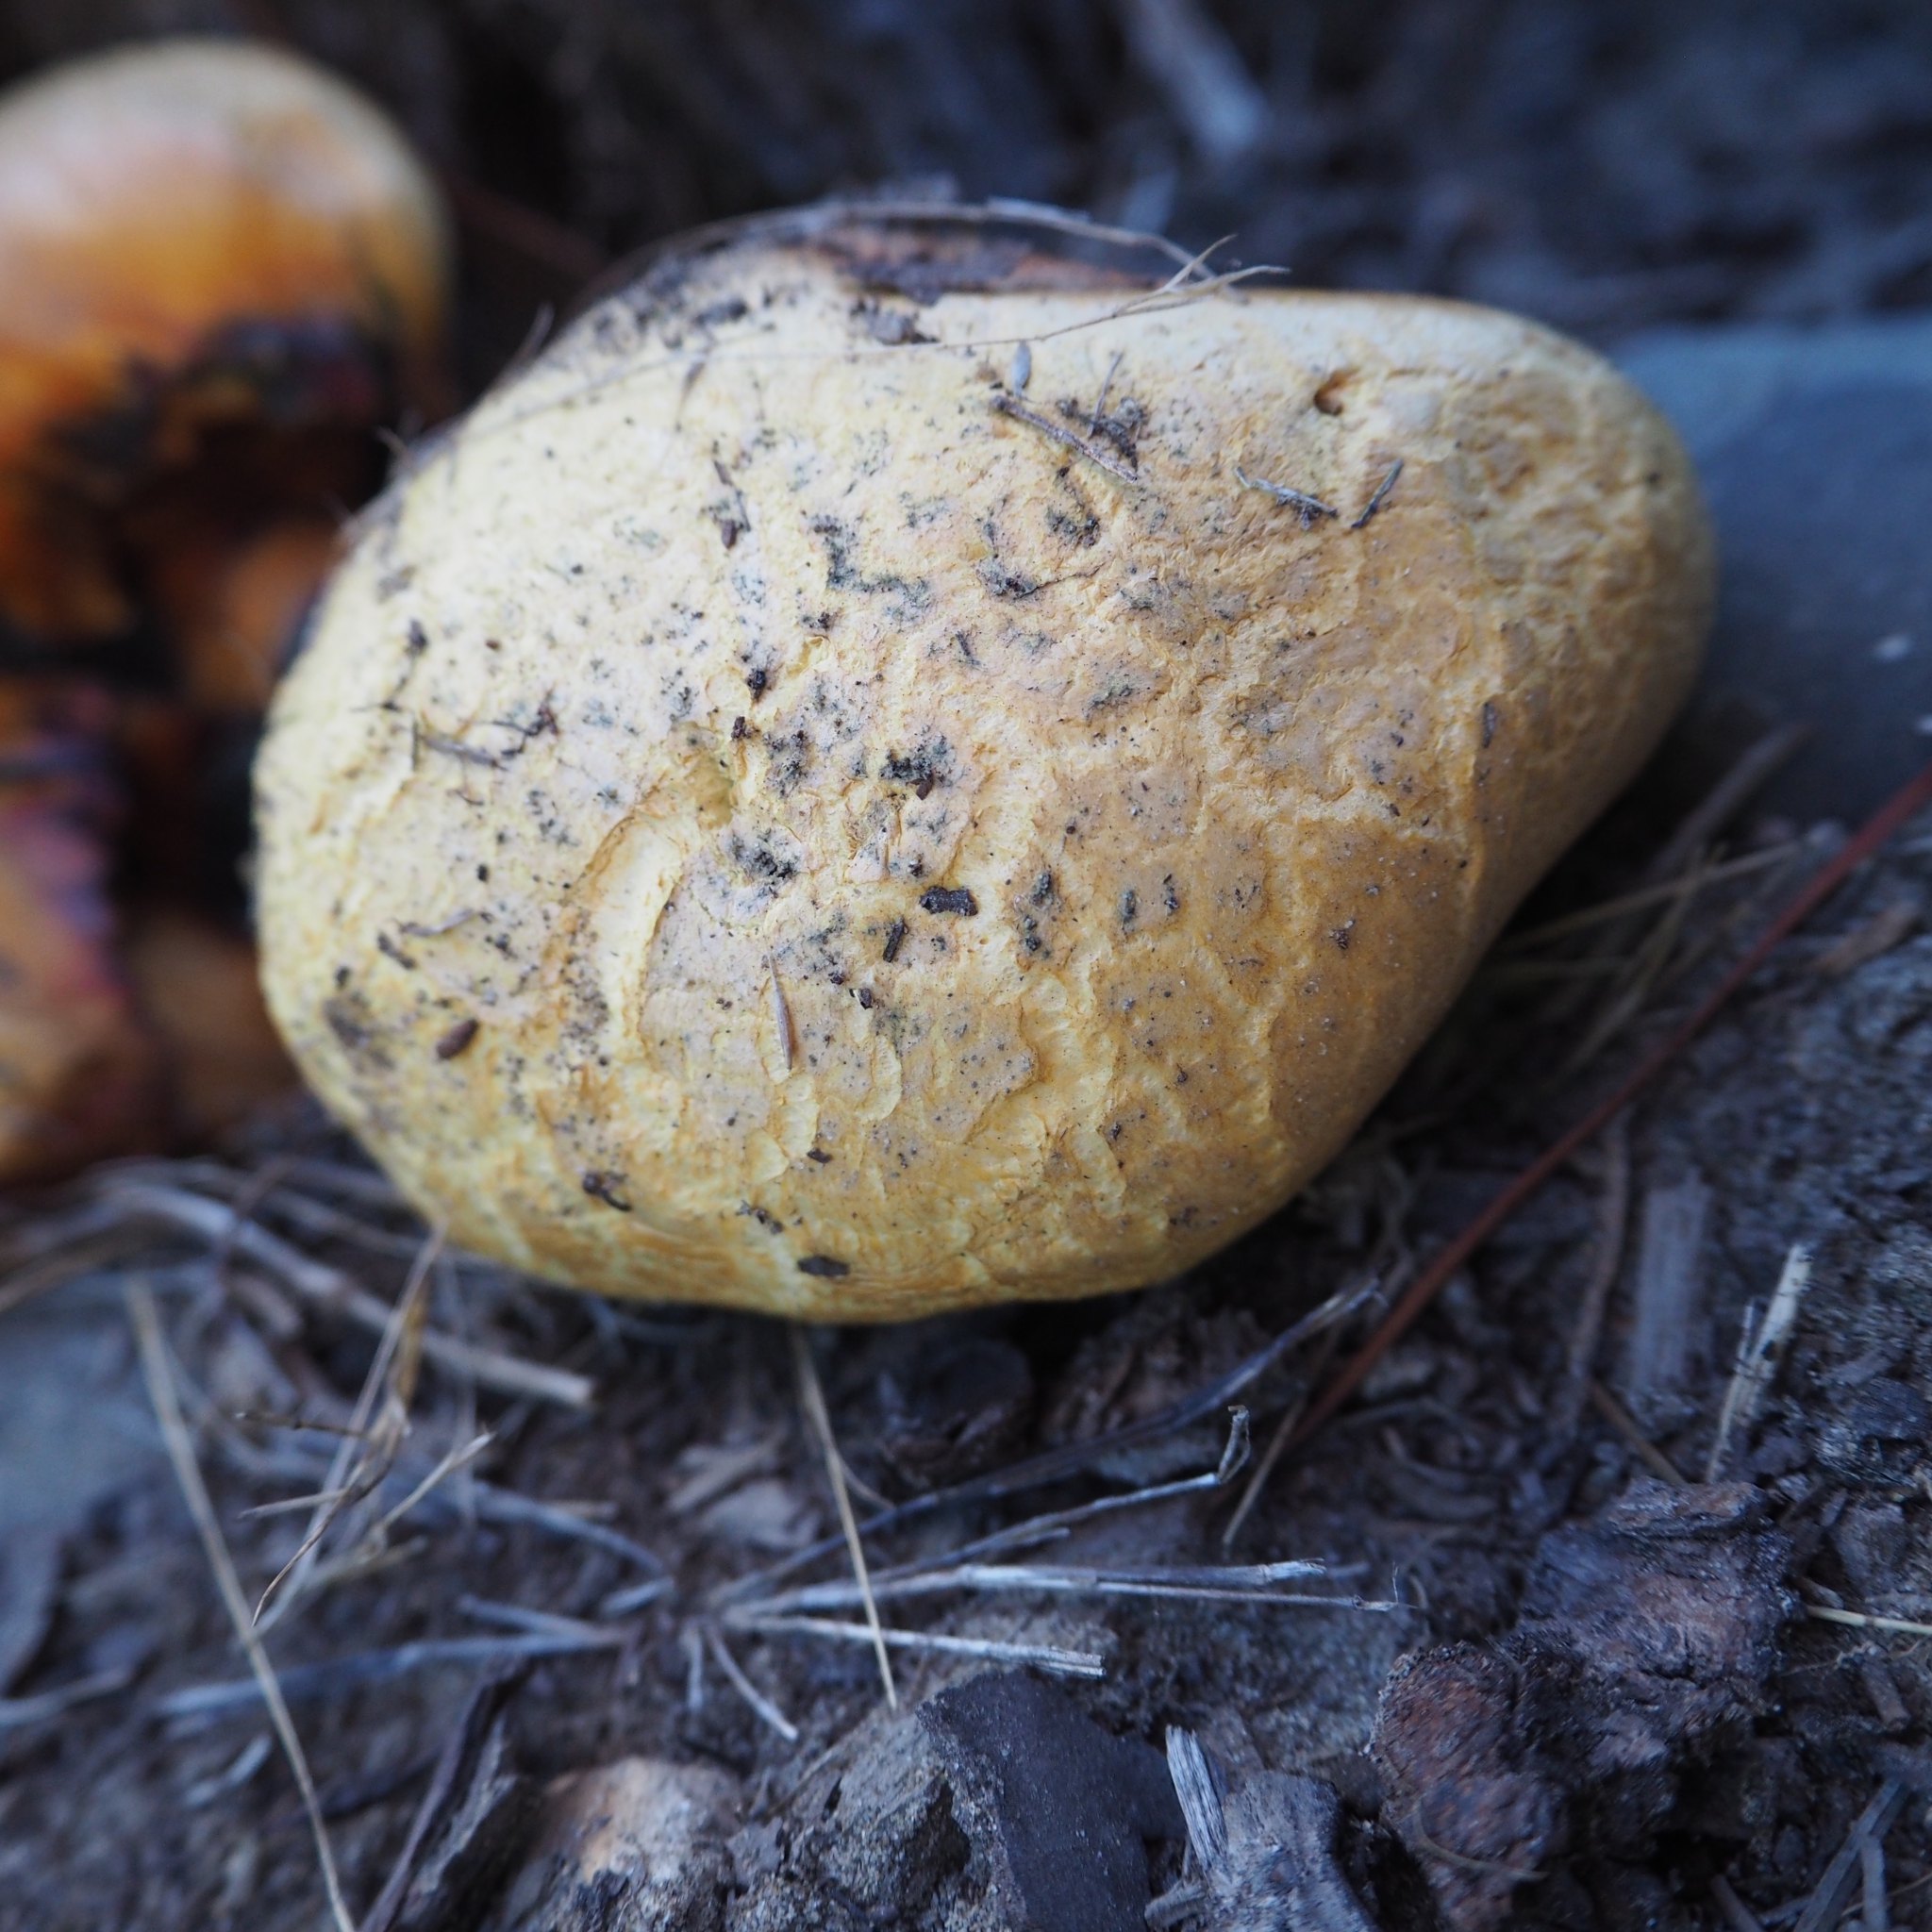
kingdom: Fungi
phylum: Basidiomycota
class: Agaricomycetes
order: Boletales
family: Boletaceae
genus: Chalciporus
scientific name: Chalciporus sphaerocephalus
